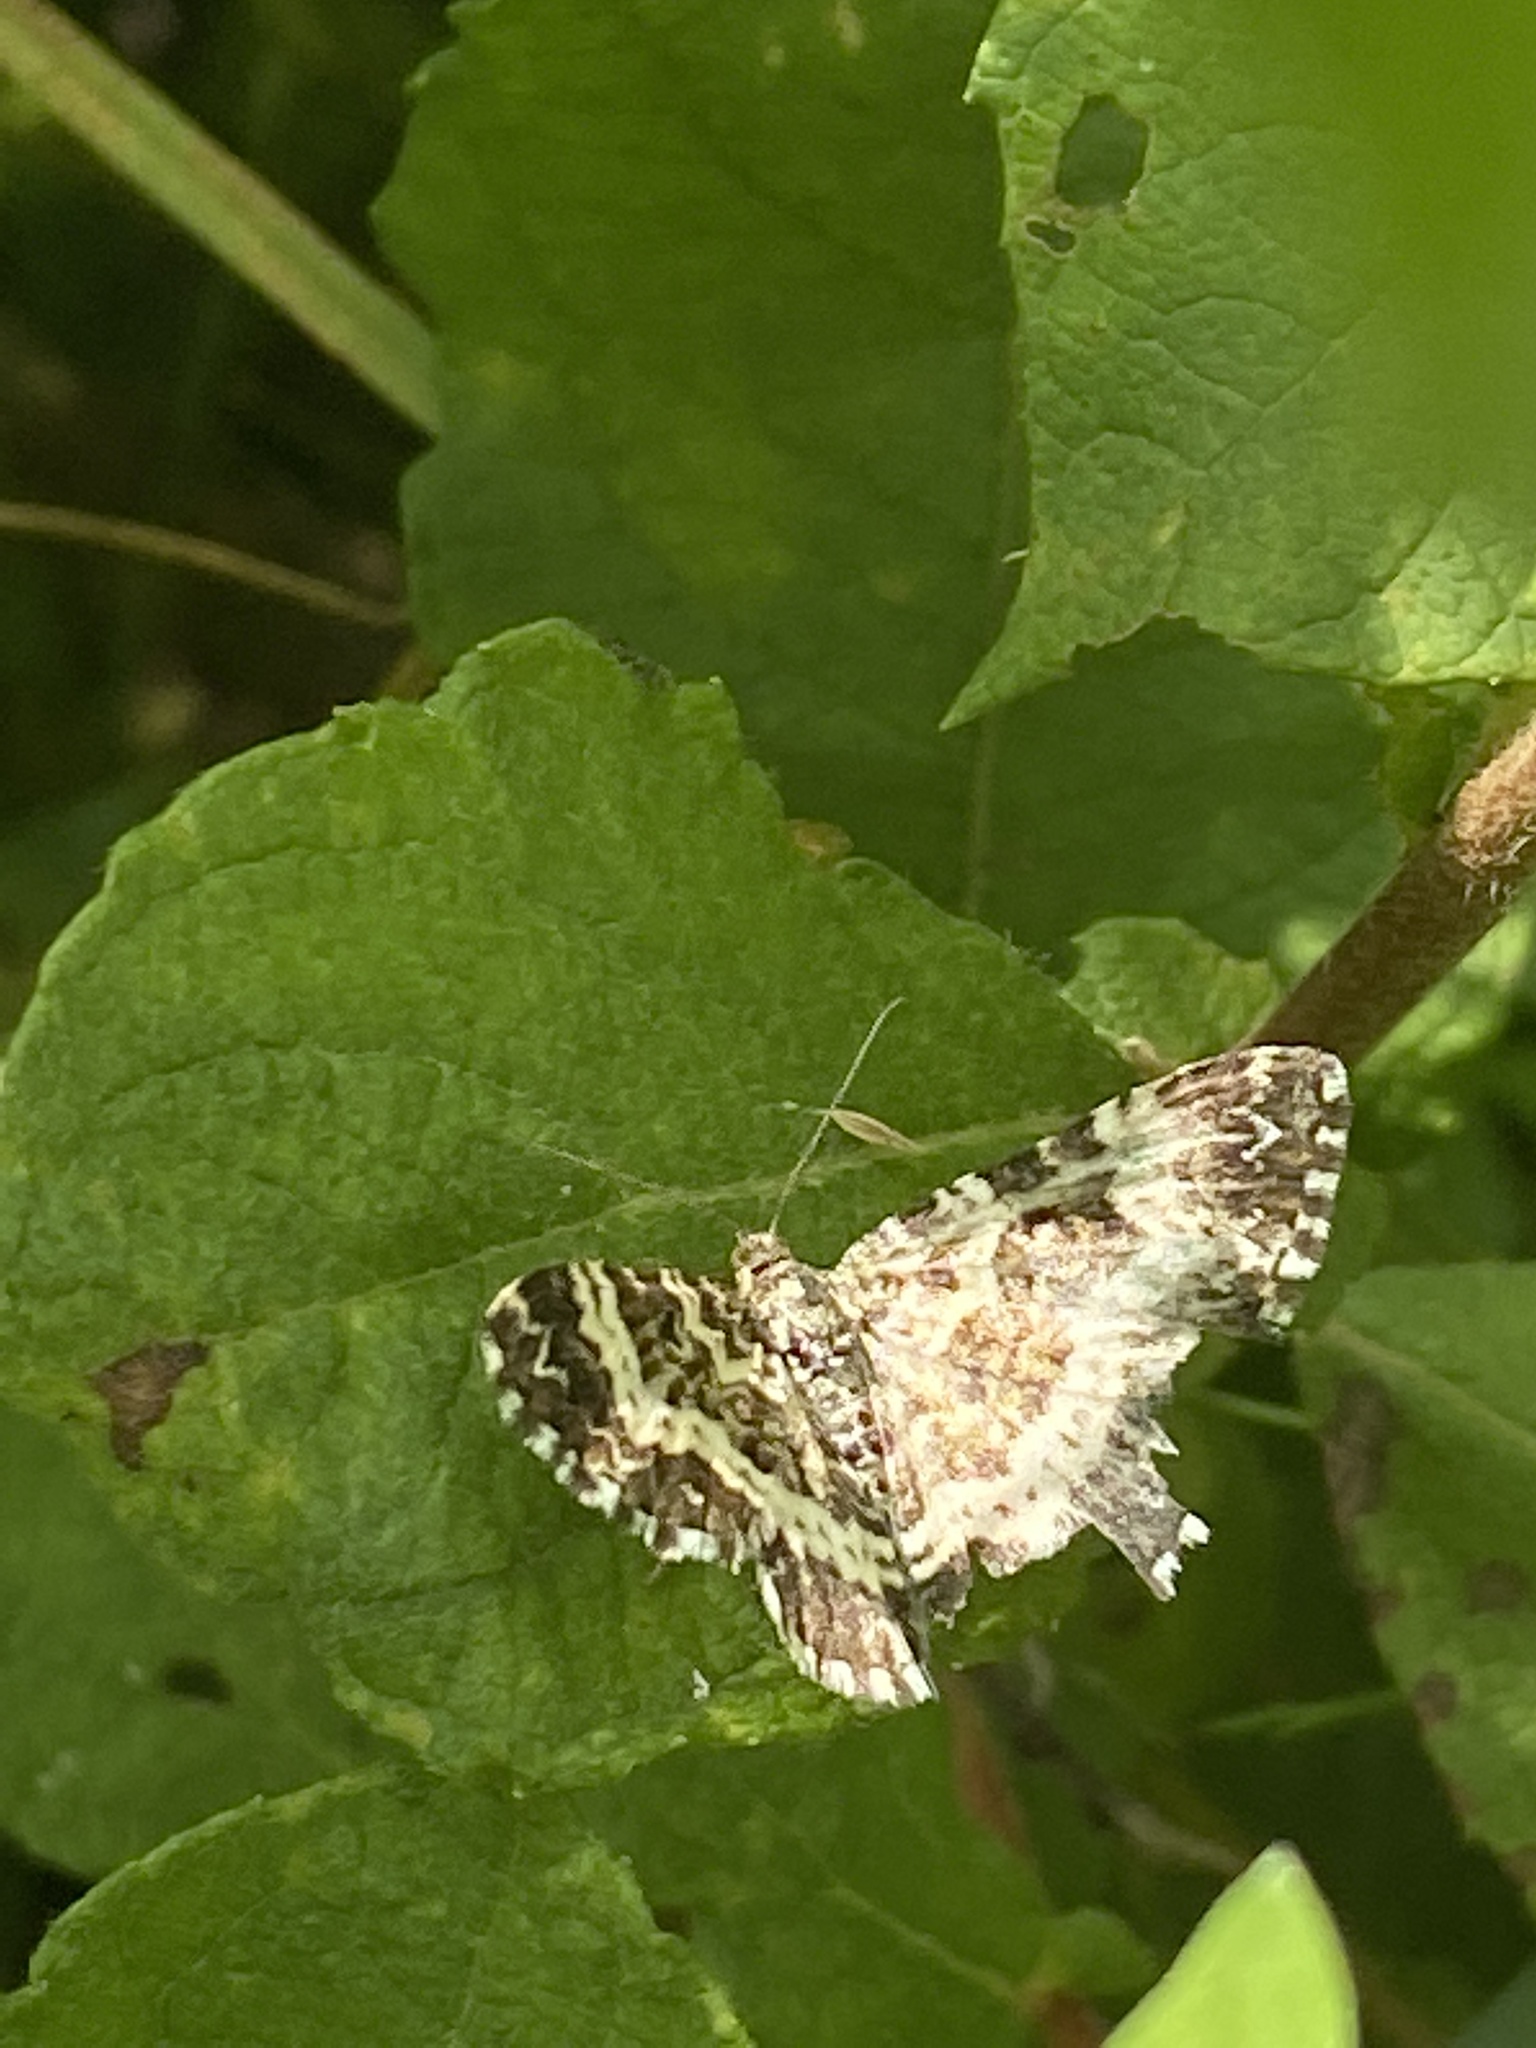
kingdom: Animalia
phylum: Arthropoda
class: Insecta
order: Lepidoptera
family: Geometridae
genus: Epirrhoe
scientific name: Epirrhoe tristata
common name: Small argent & sable
